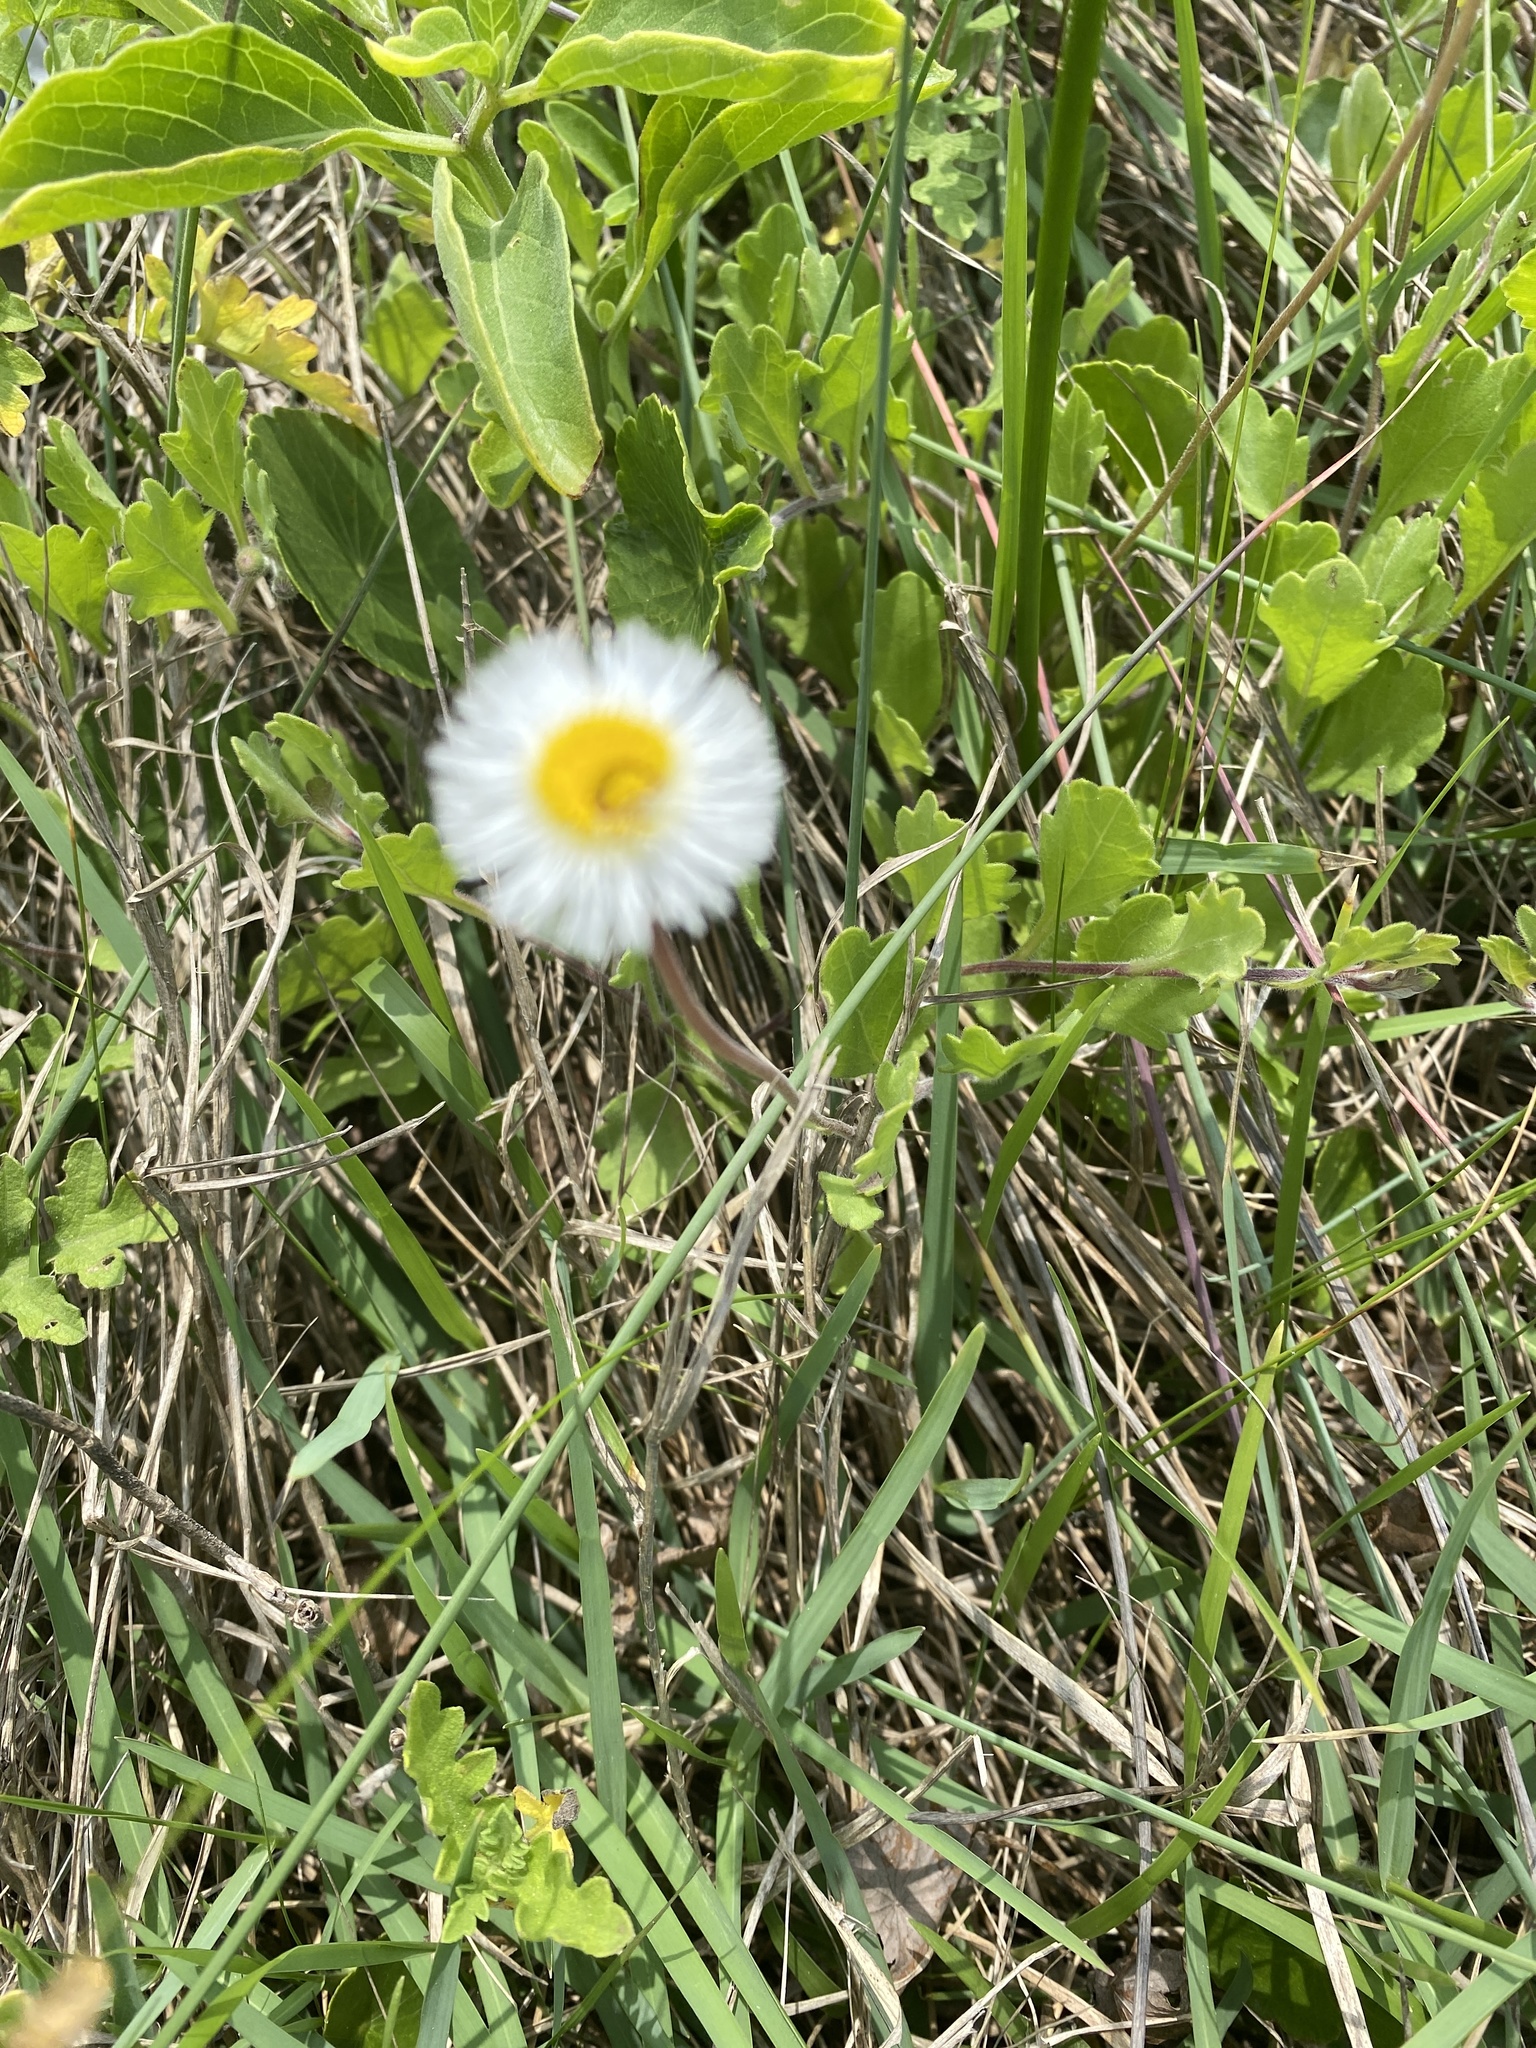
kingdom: Plantae
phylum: Tracheophyta
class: Magnoliopsida
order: Asterales
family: Asteraceae
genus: Erigeron
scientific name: Erigeron procumbens
